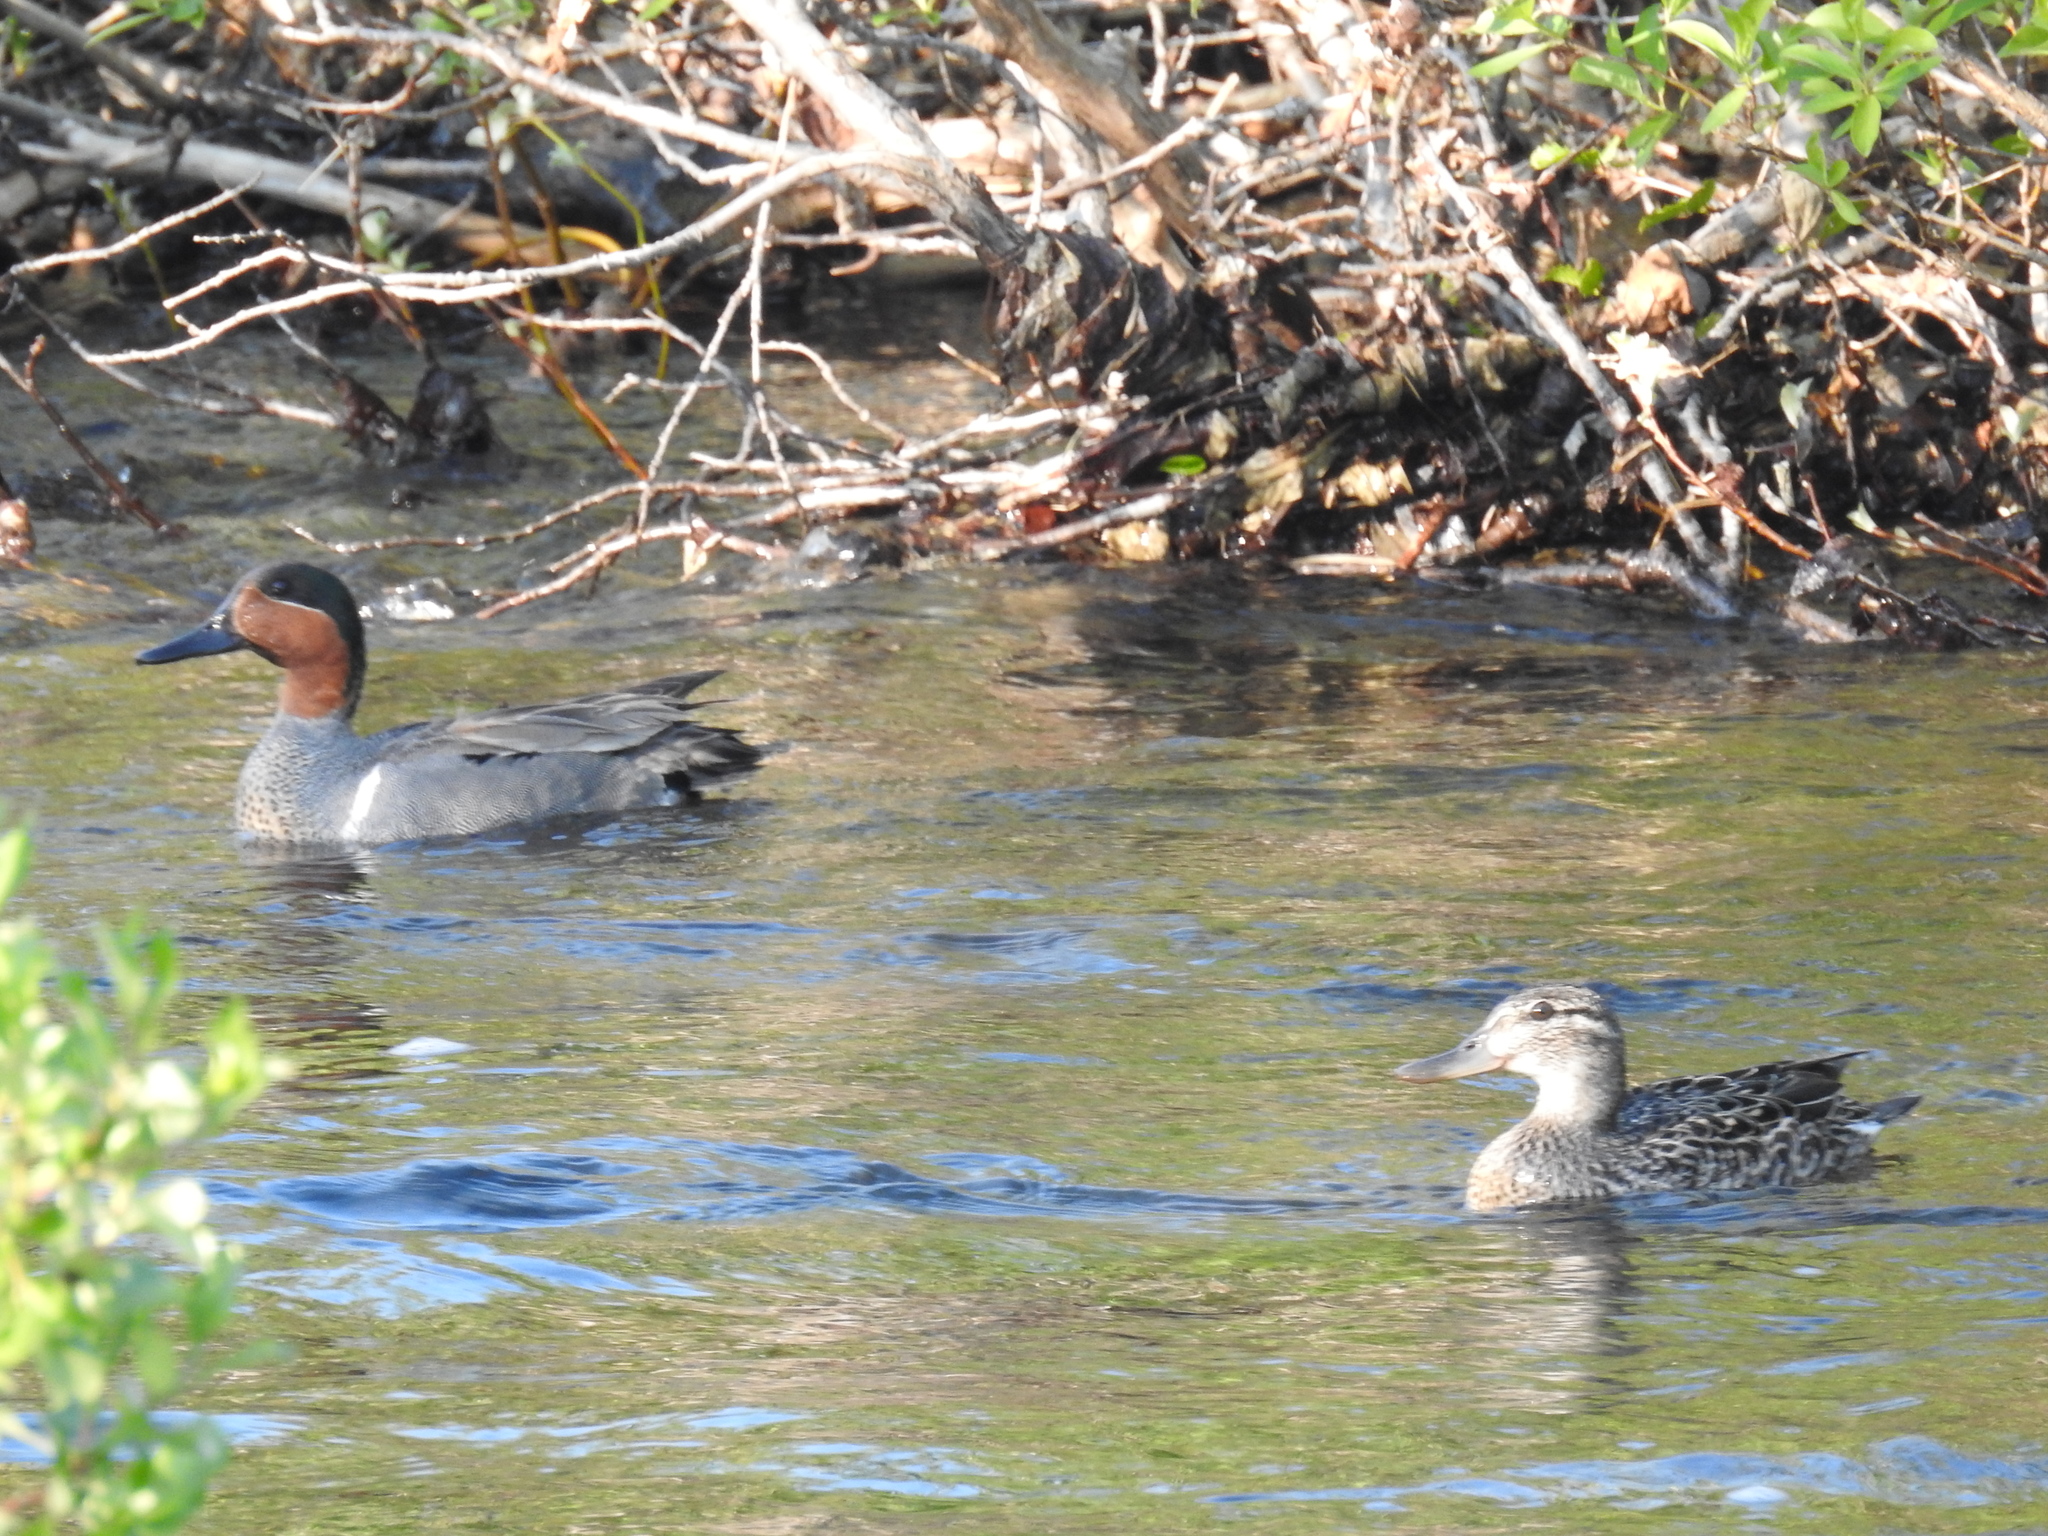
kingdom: Animalia
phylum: Chordata
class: Aves
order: Anseriformes
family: Anatidae
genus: Anas
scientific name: Anas crecca
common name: Eurasian teal
